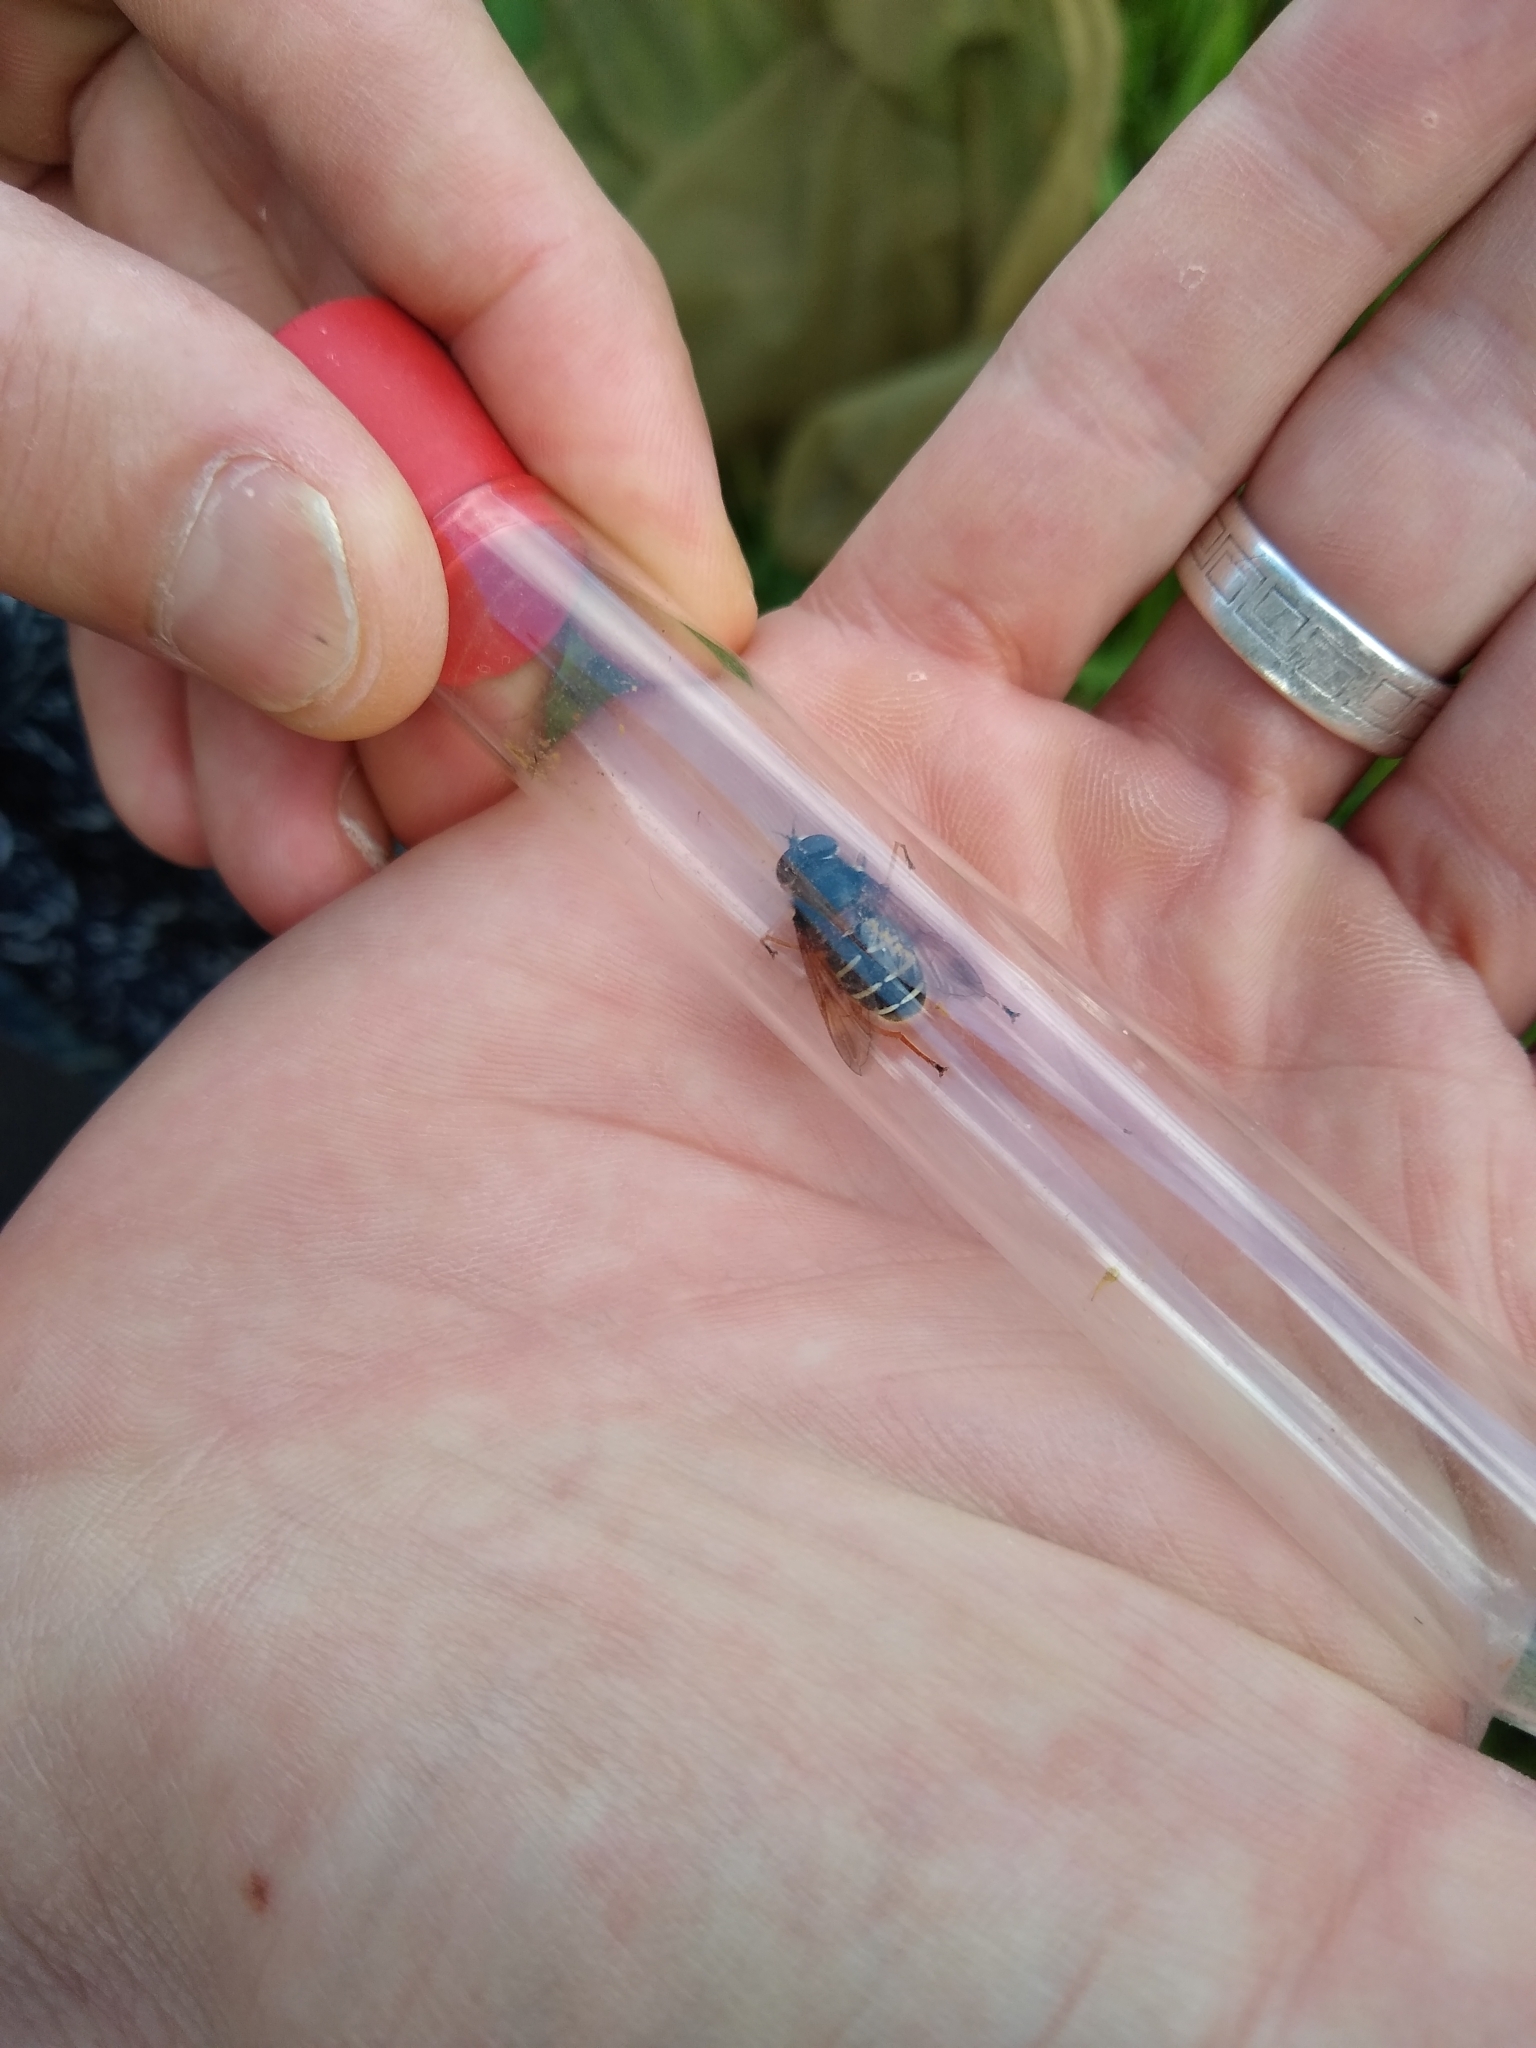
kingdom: Animalia
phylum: Arthropoda
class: Insecta
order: Diptera
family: Syrphidae
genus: Sericomyia
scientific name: Sericomyia lappona
